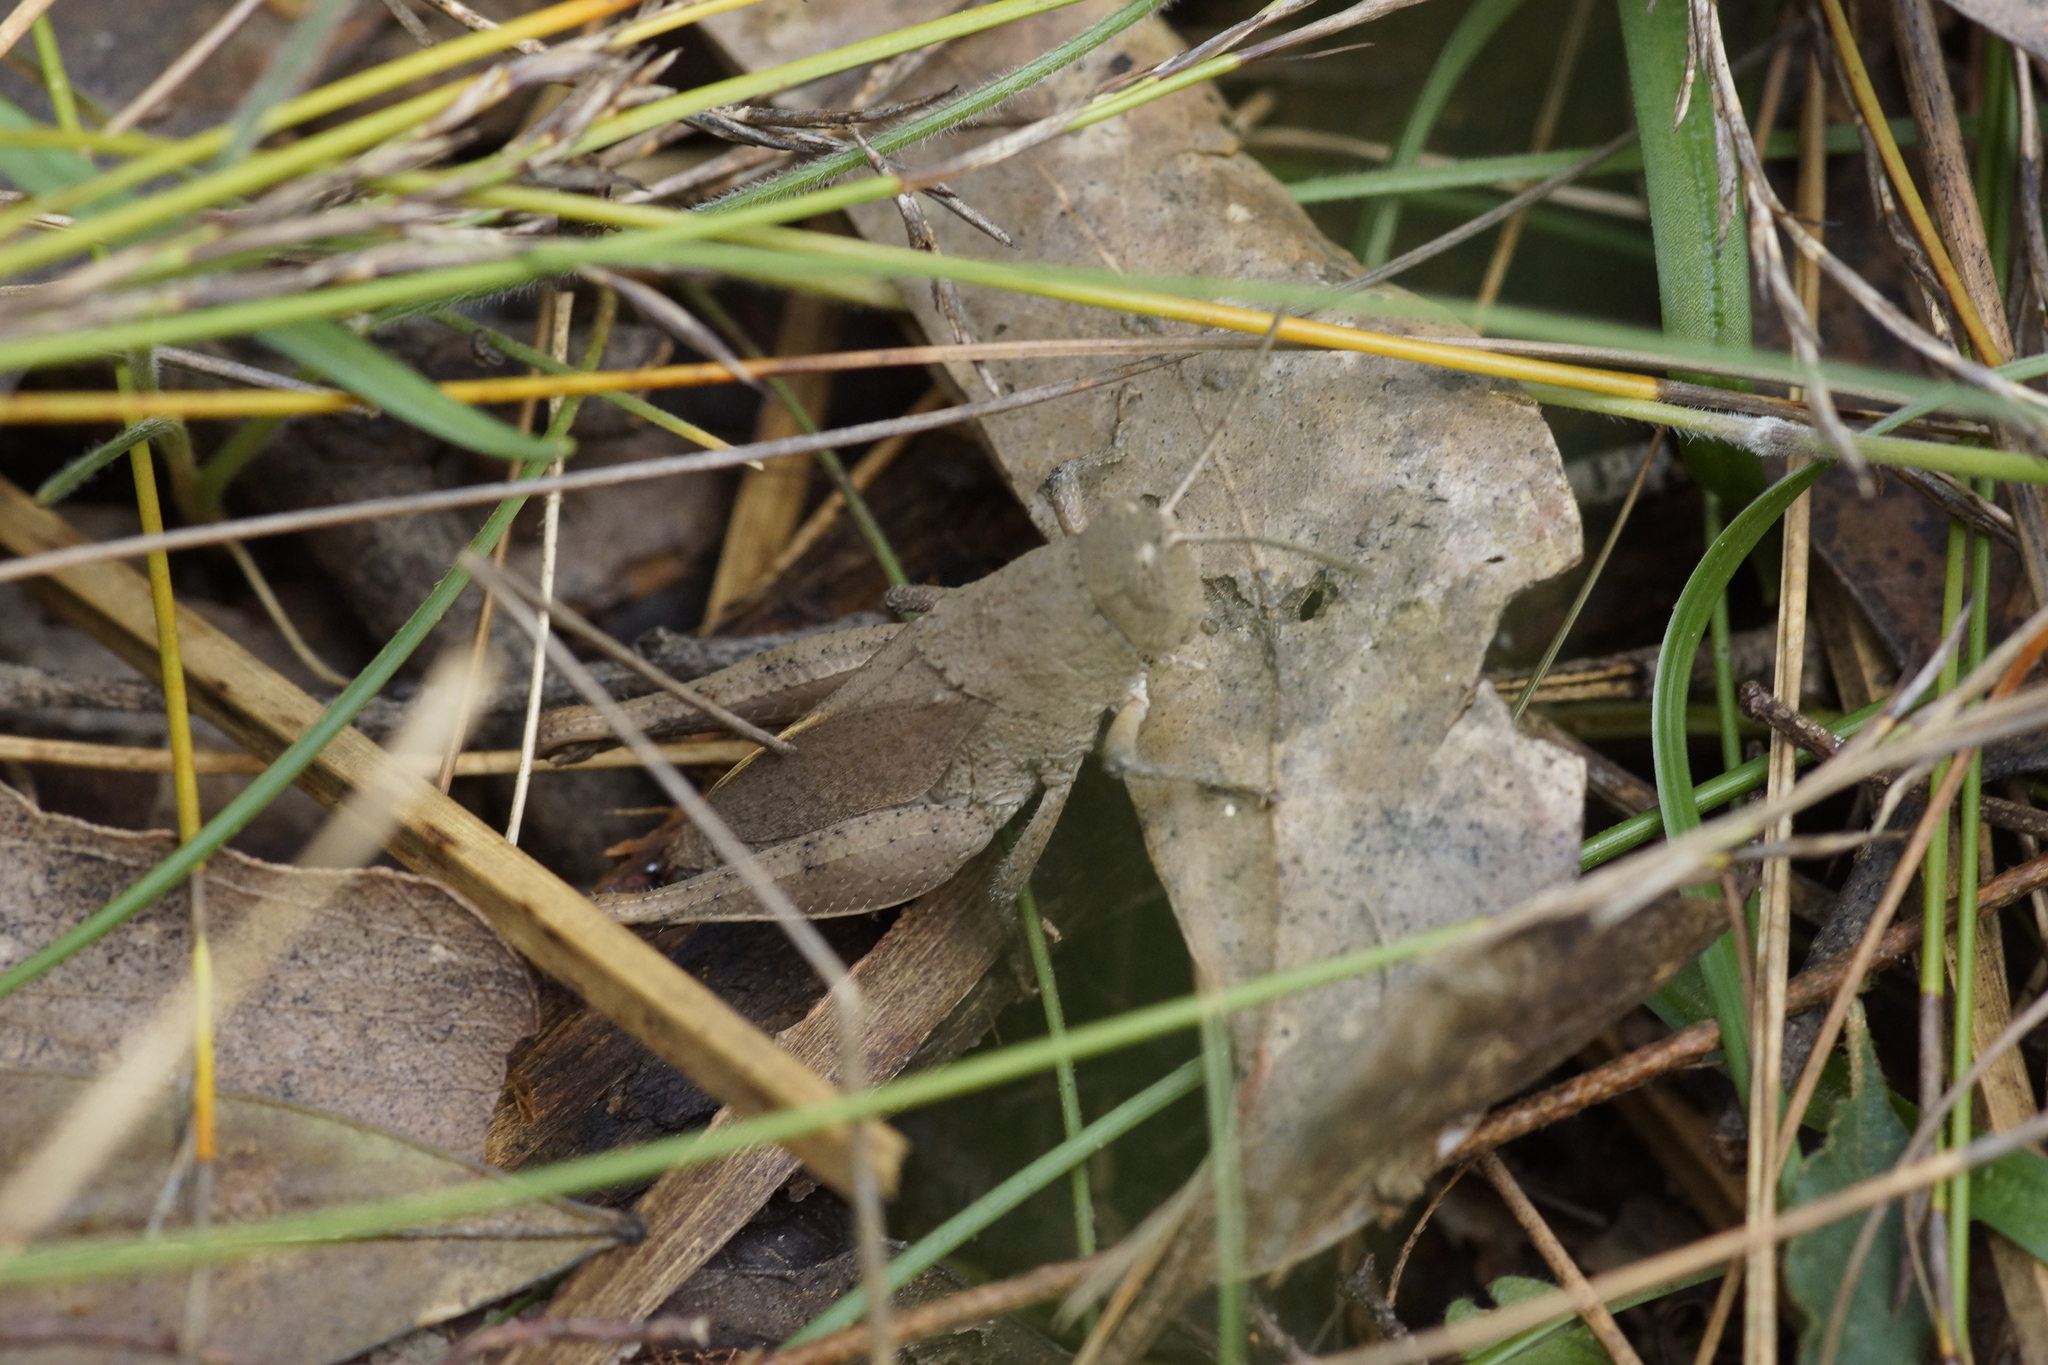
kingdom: Animalia
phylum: Arthropoda
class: Insecta
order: Orthoptera
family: Acrididae
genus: Rhitzala
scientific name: Rhitzala modesta
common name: Short-winged heath grasshopper
